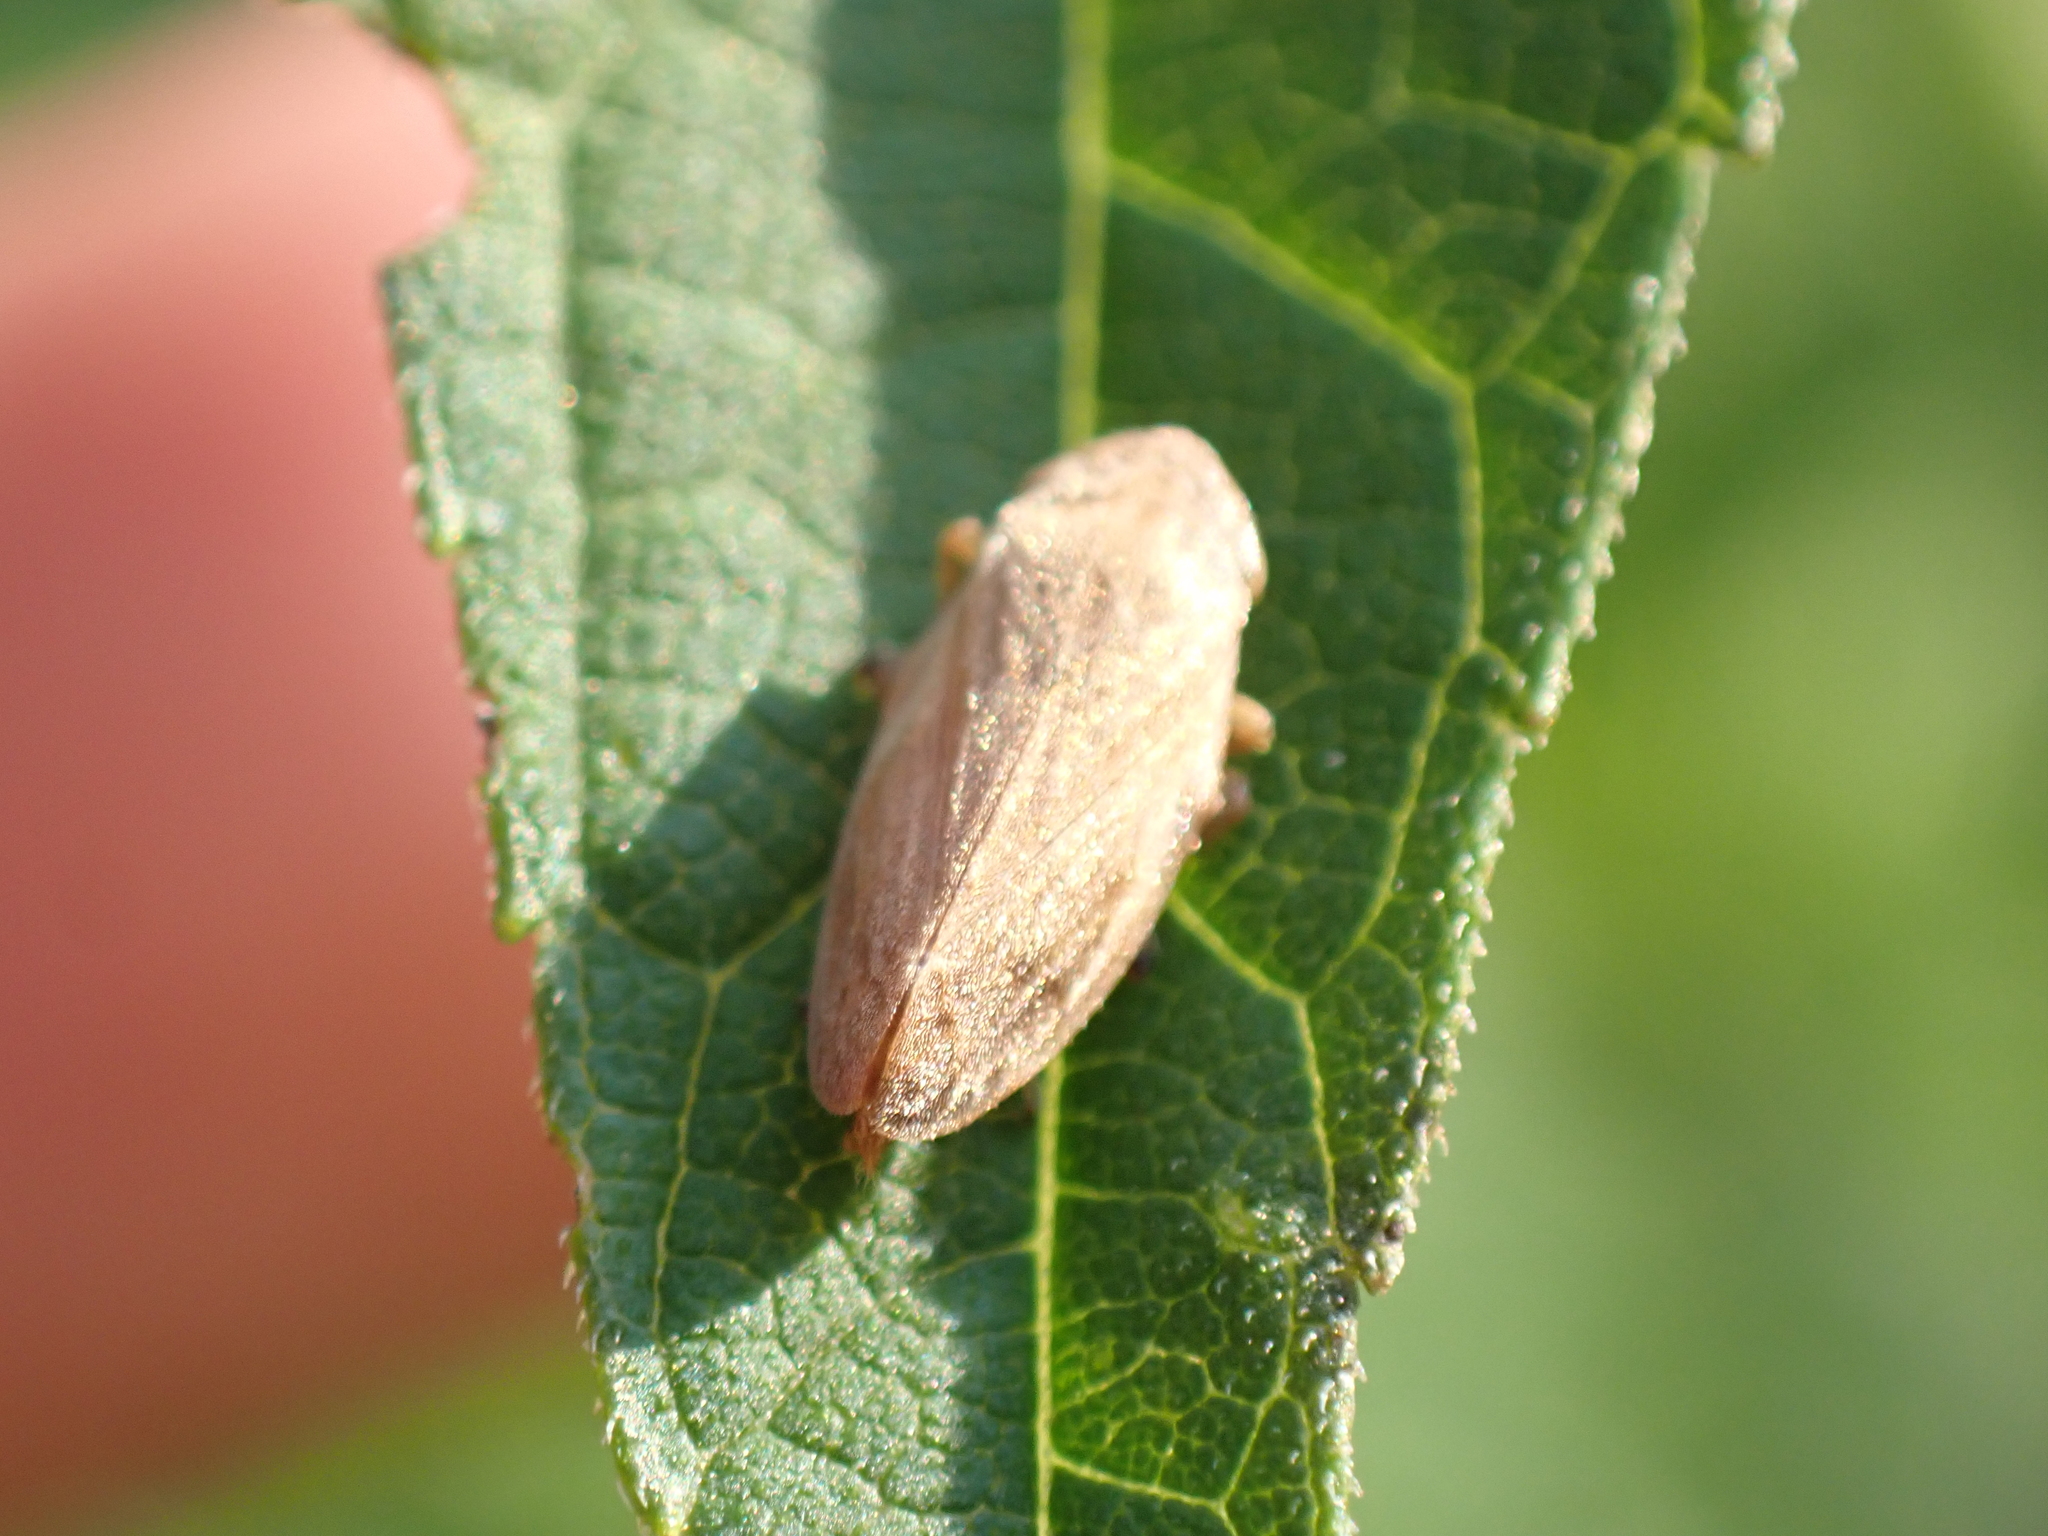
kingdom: Animalia
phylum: Arthropoda
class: Insecta
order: Hemiptera
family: Aphrophoridae
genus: Philaenus
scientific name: Philaenus spumarius
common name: Meadow spittlebug
